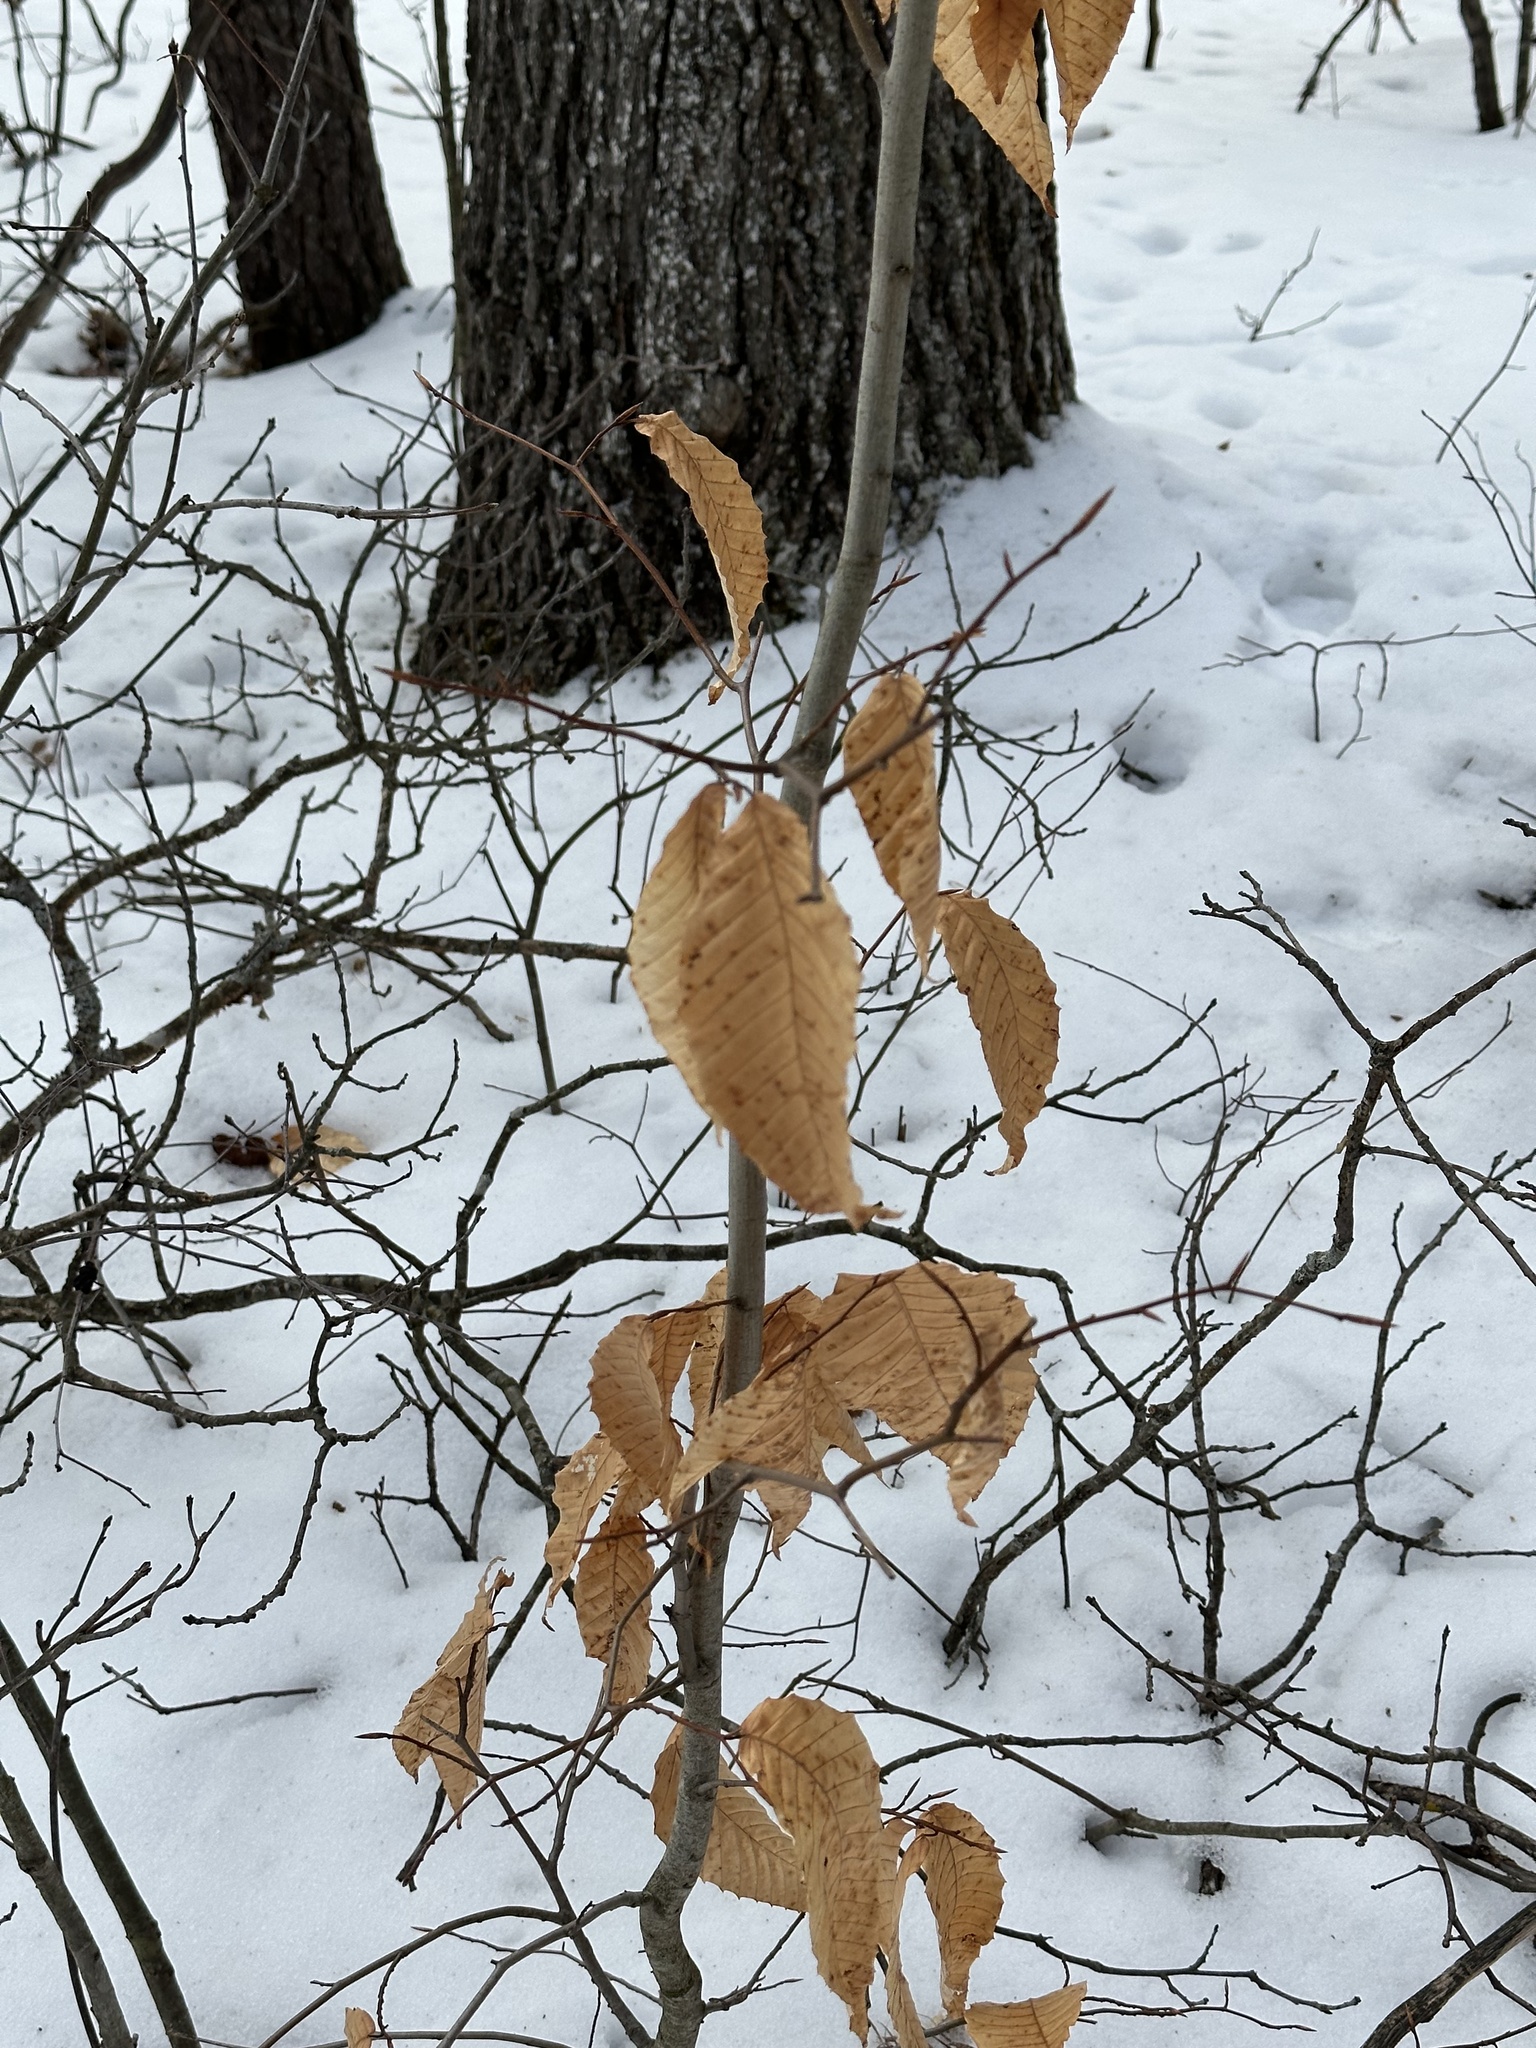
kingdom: Plantae
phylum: Tracheophyta
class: Magnoliopsida
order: Fagales
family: Fagaceae
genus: Fagus
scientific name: Fagus grandifolia
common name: American beech
